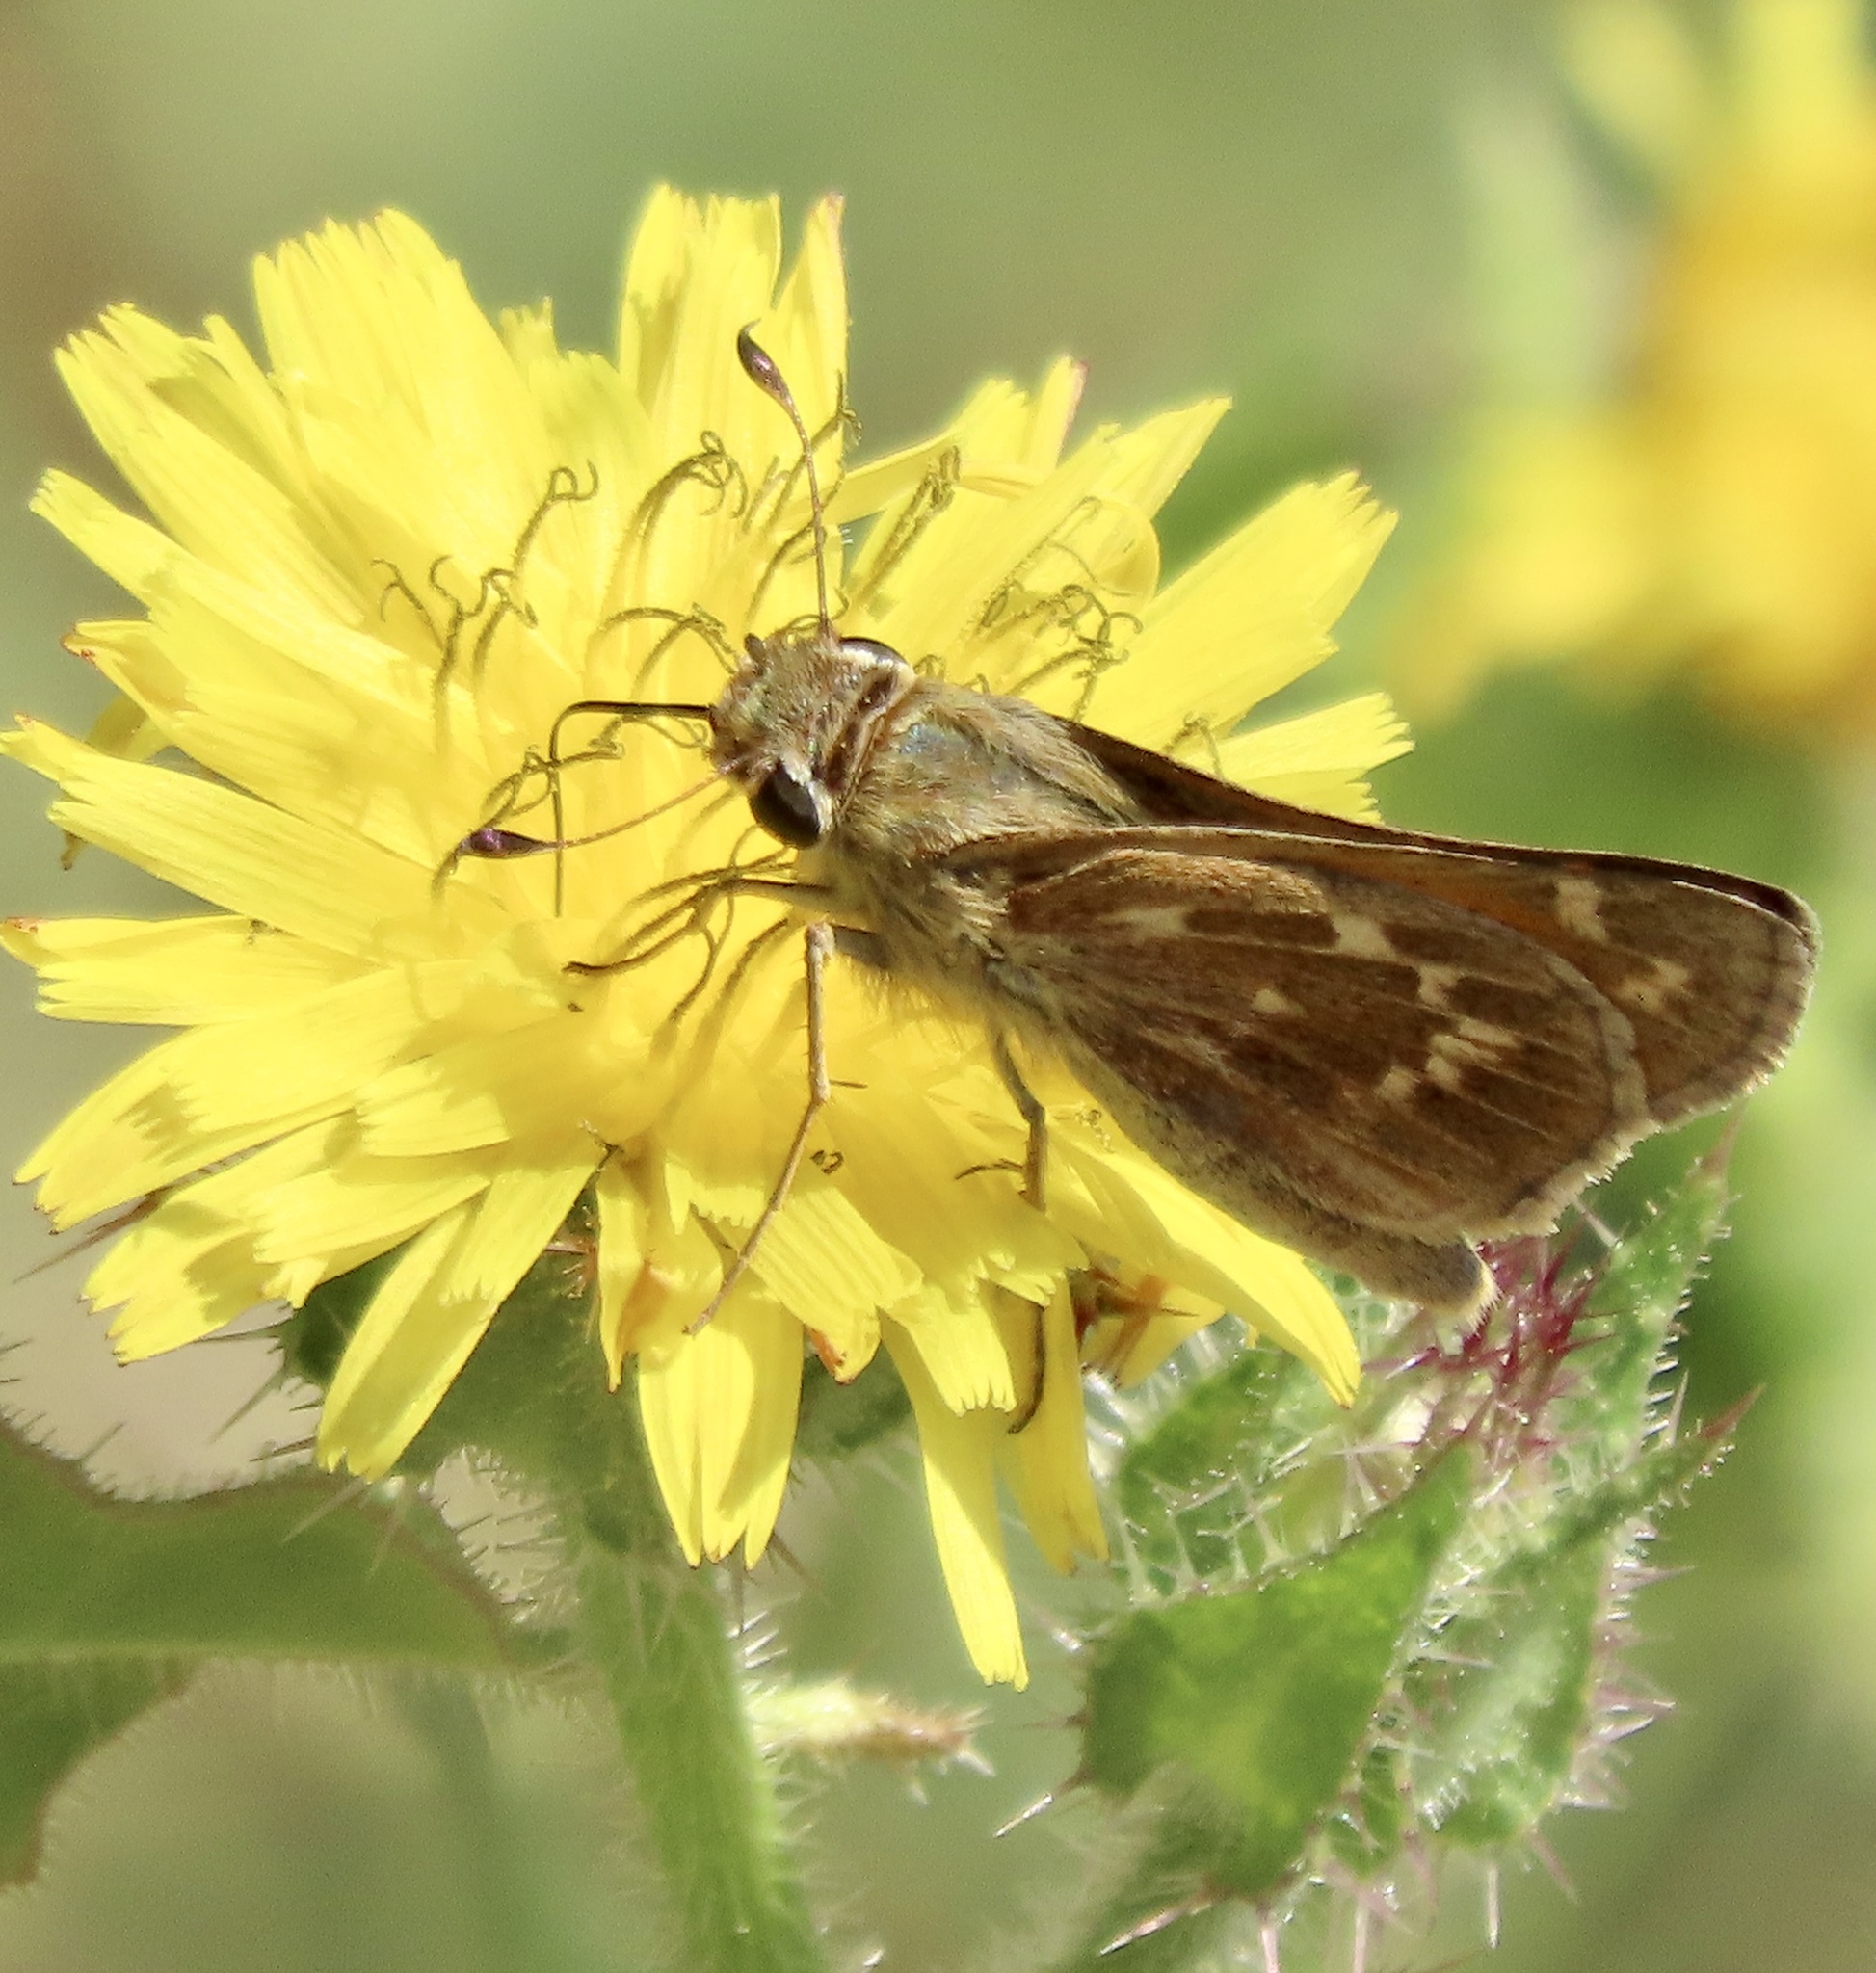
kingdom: Animalia
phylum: Arthropoda
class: Insecta
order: Lepidoptera
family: Hesperiidae
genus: Atalopedes
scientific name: Atalopedes campestris
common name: Sachem
